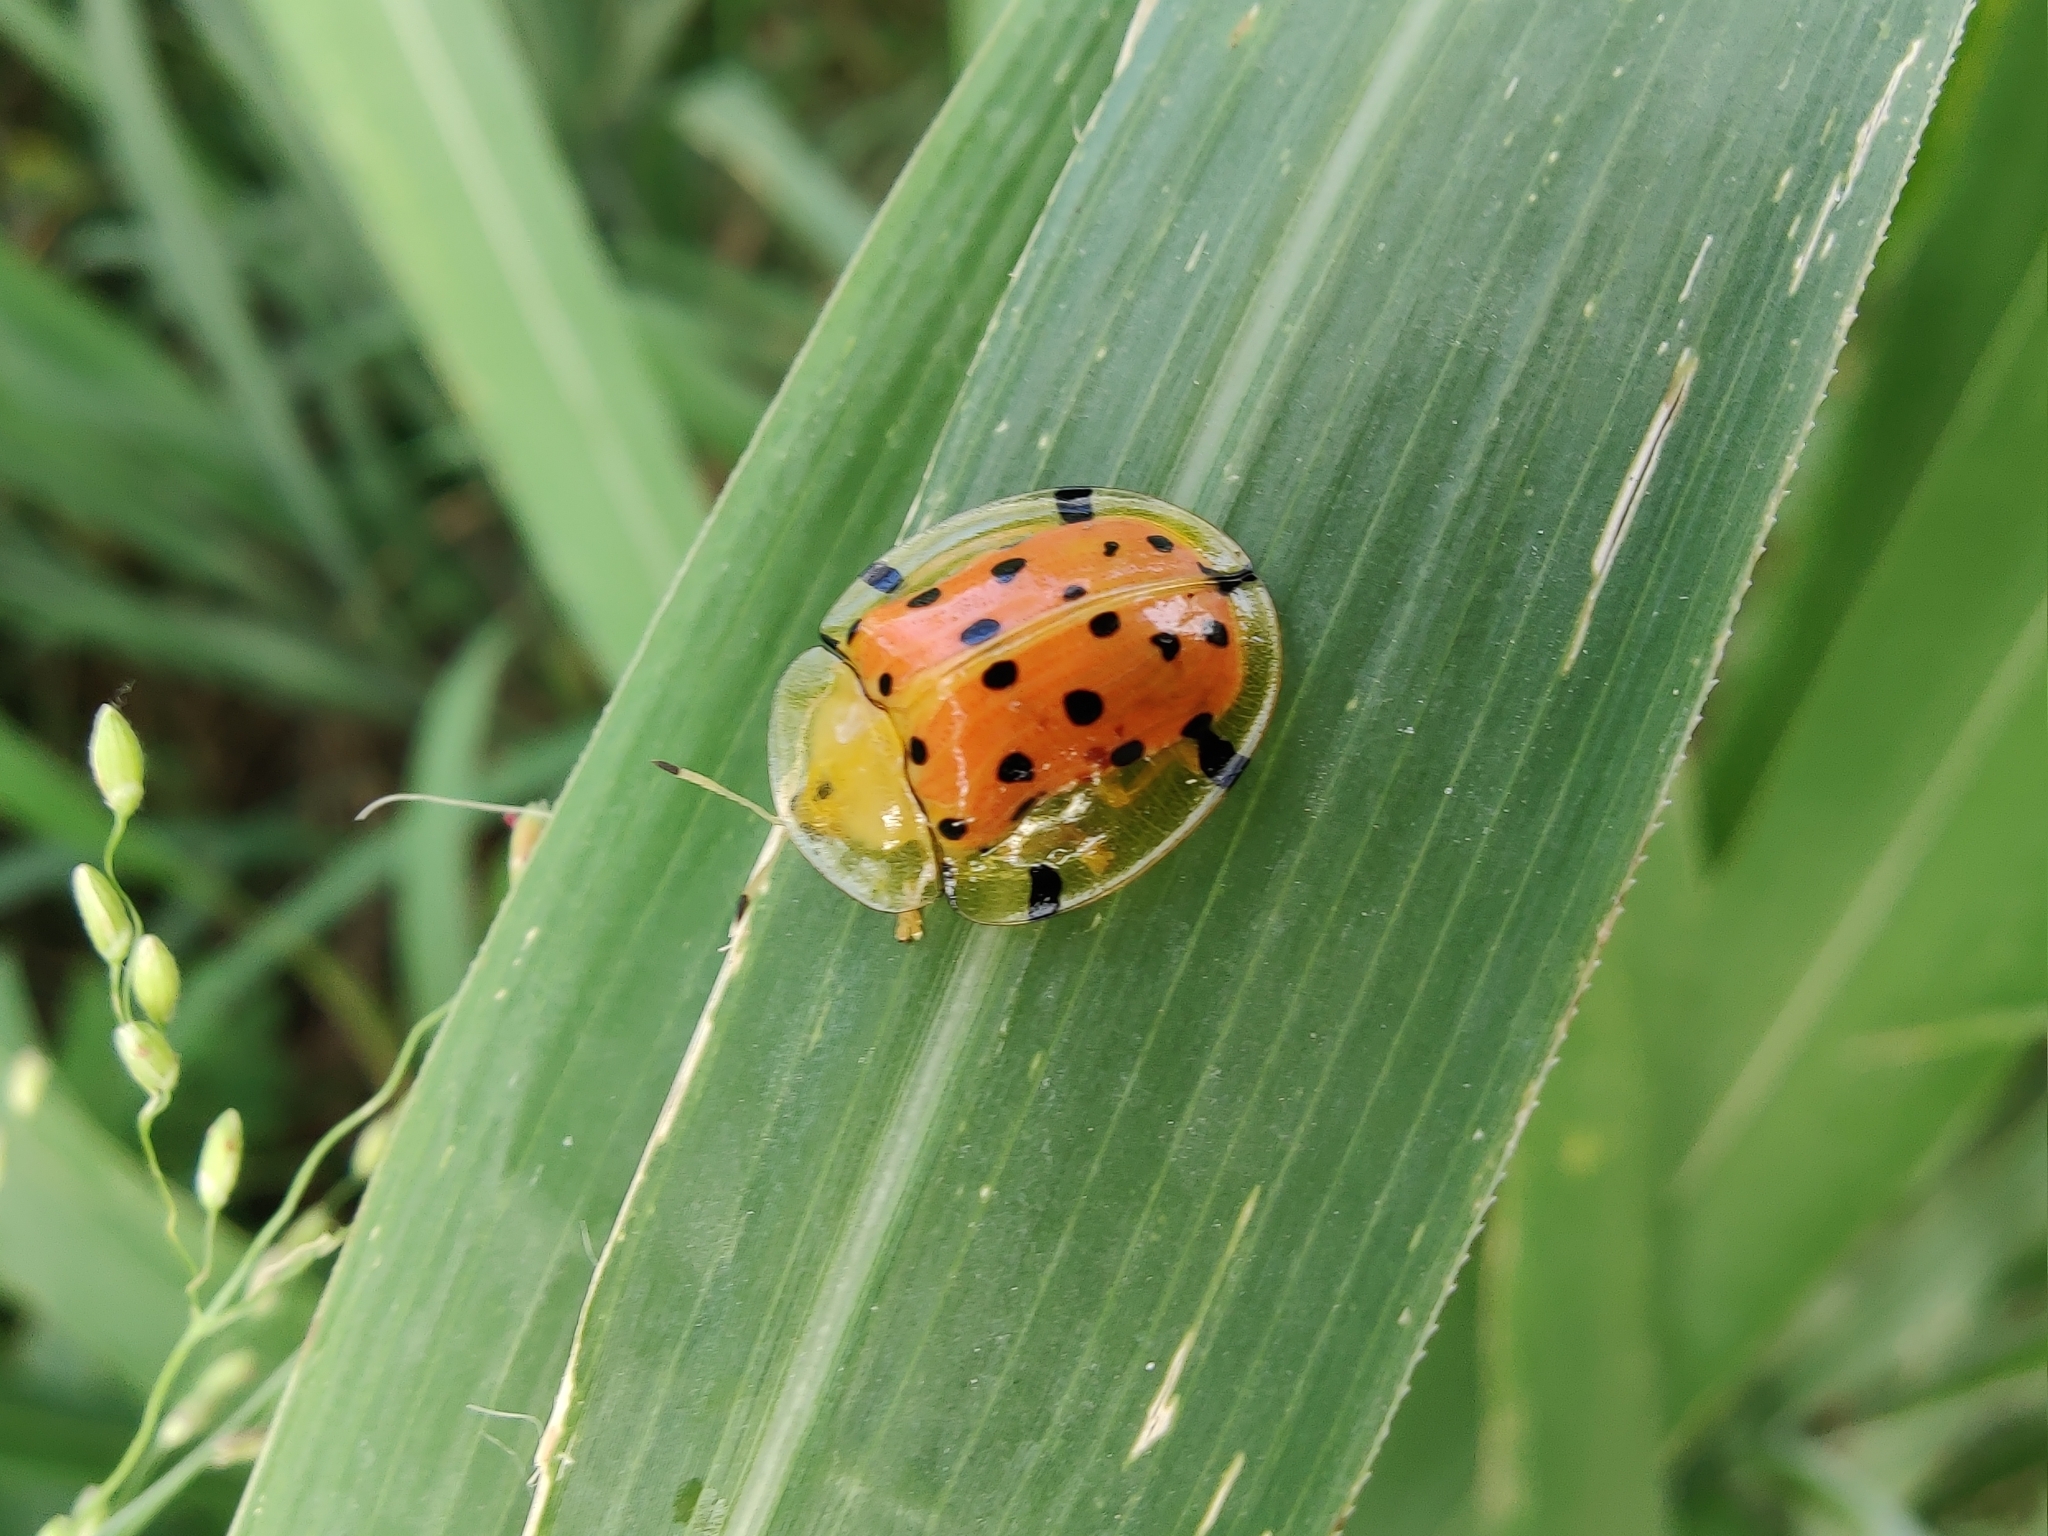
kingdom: Animalia
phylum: Arthropoda
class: Insecta
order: Coleoptera
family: Chrysomelidae
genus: Aspidimorpha
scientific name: Aspidimorpha miliaris
